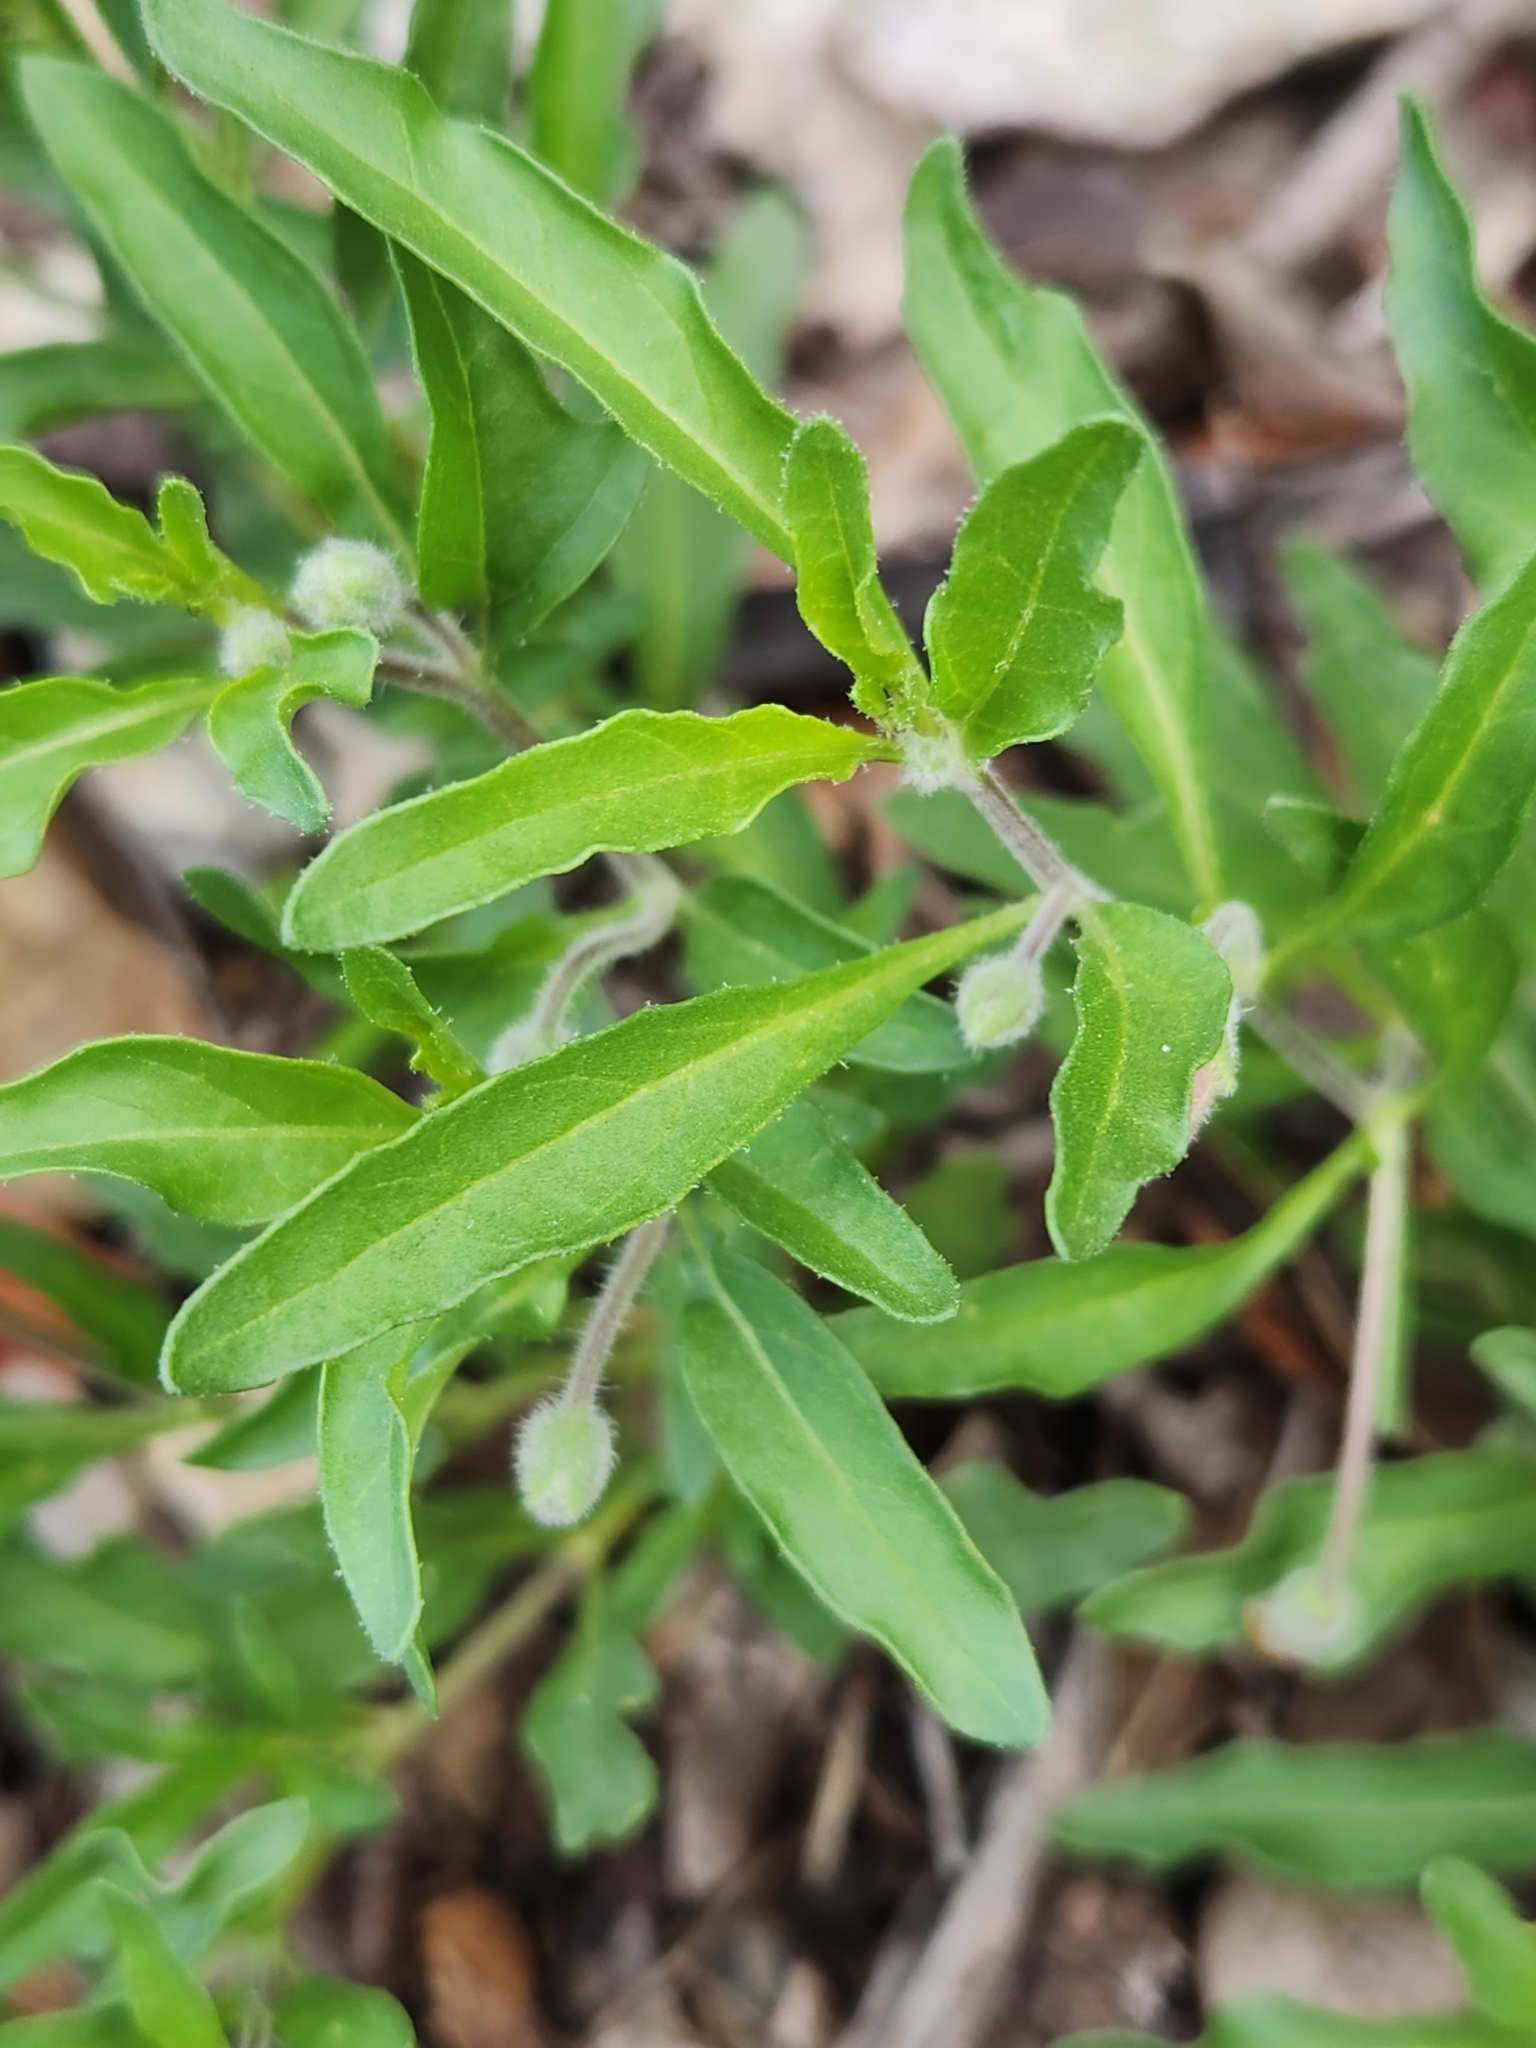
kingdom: Plantae
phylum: Tracheophyta
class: Magnoliopsida
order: Solanales
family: Solanaceae
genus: Chamaesaracha
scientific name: Chamaesaracha edwardsiana
